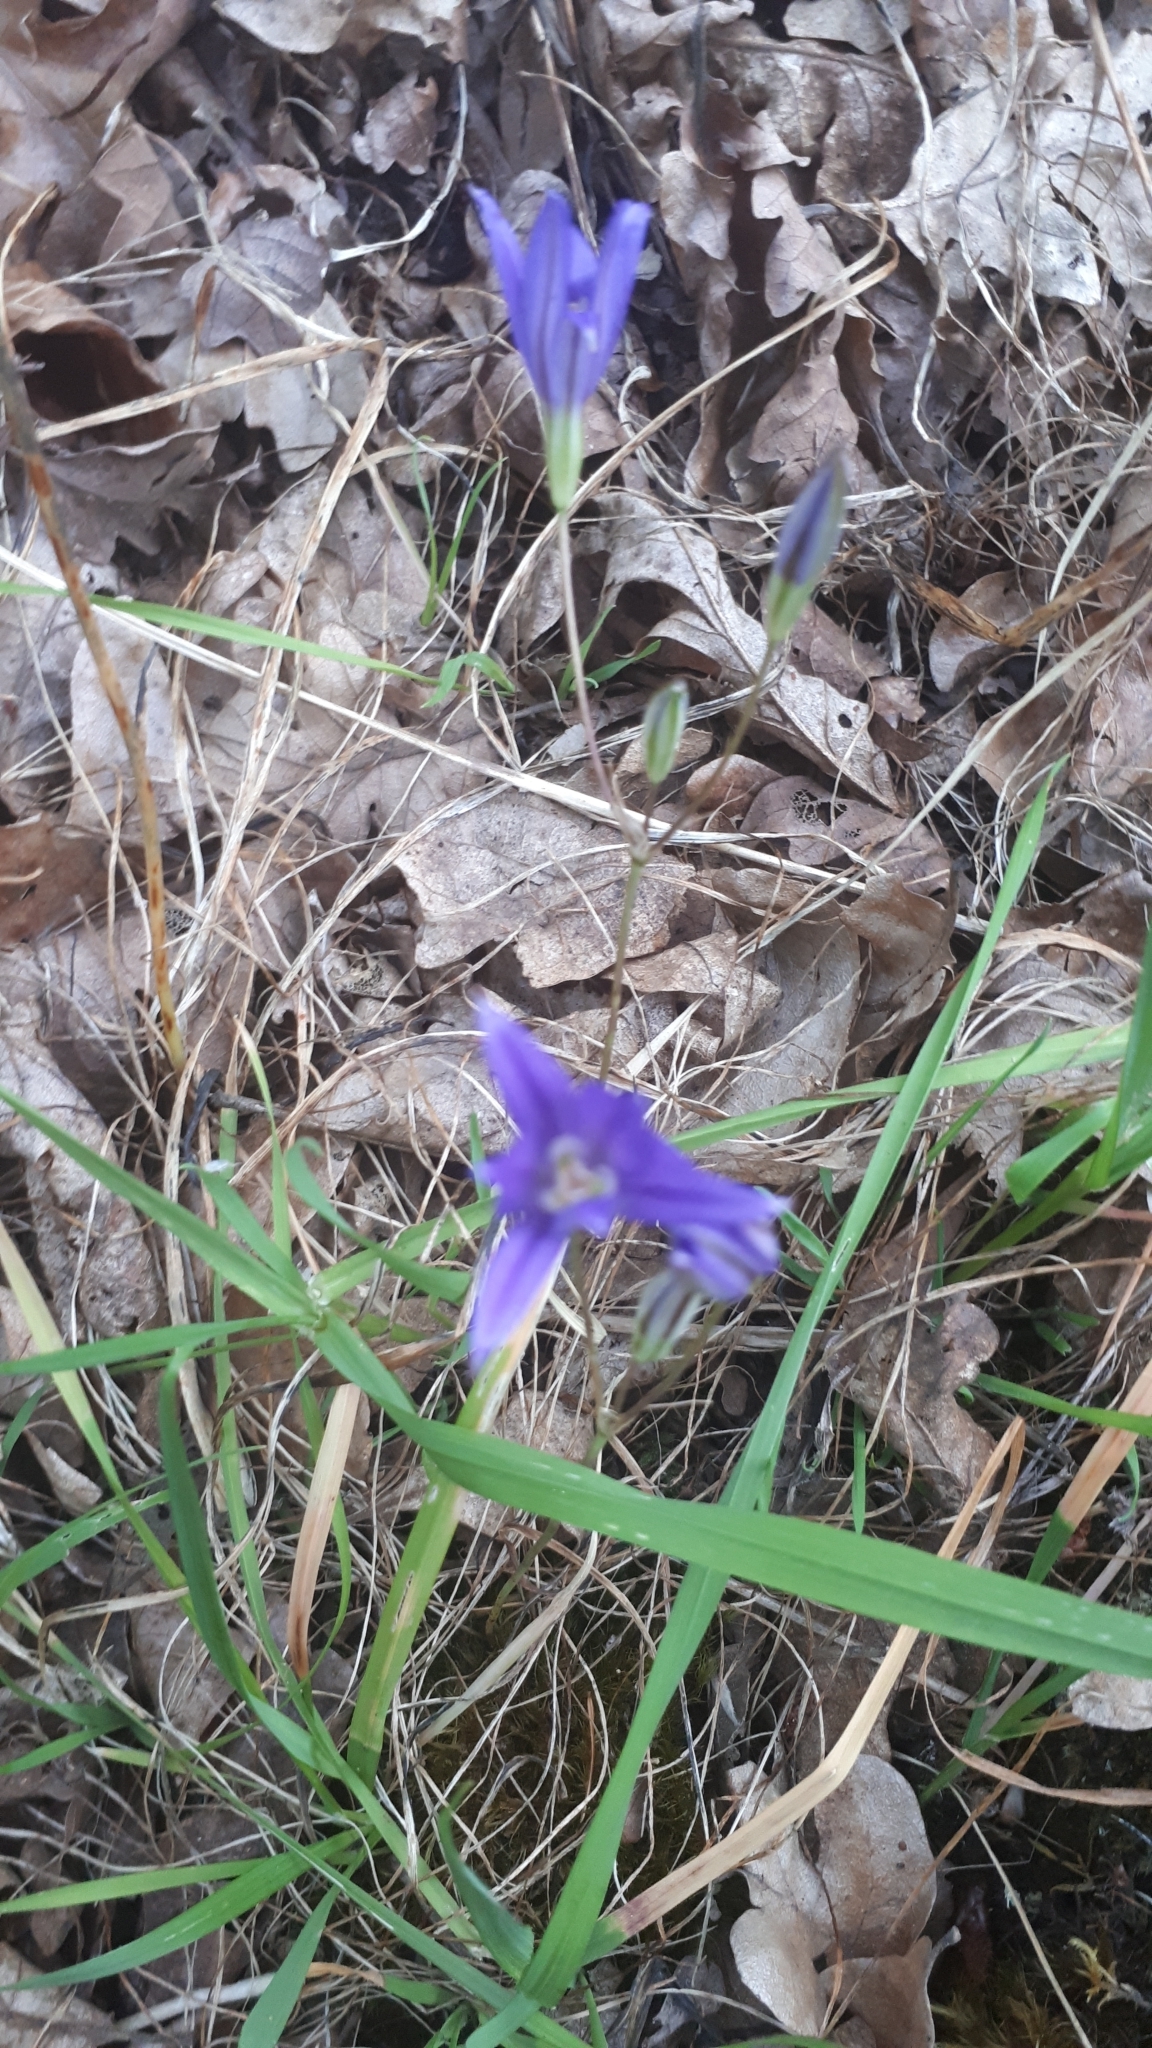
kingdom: Plantae
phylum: Tracheophyta
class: Liliopsida
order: Asparagales
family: Asparagaceae
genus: Brodiaea
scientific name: Brodiaea coronaria
